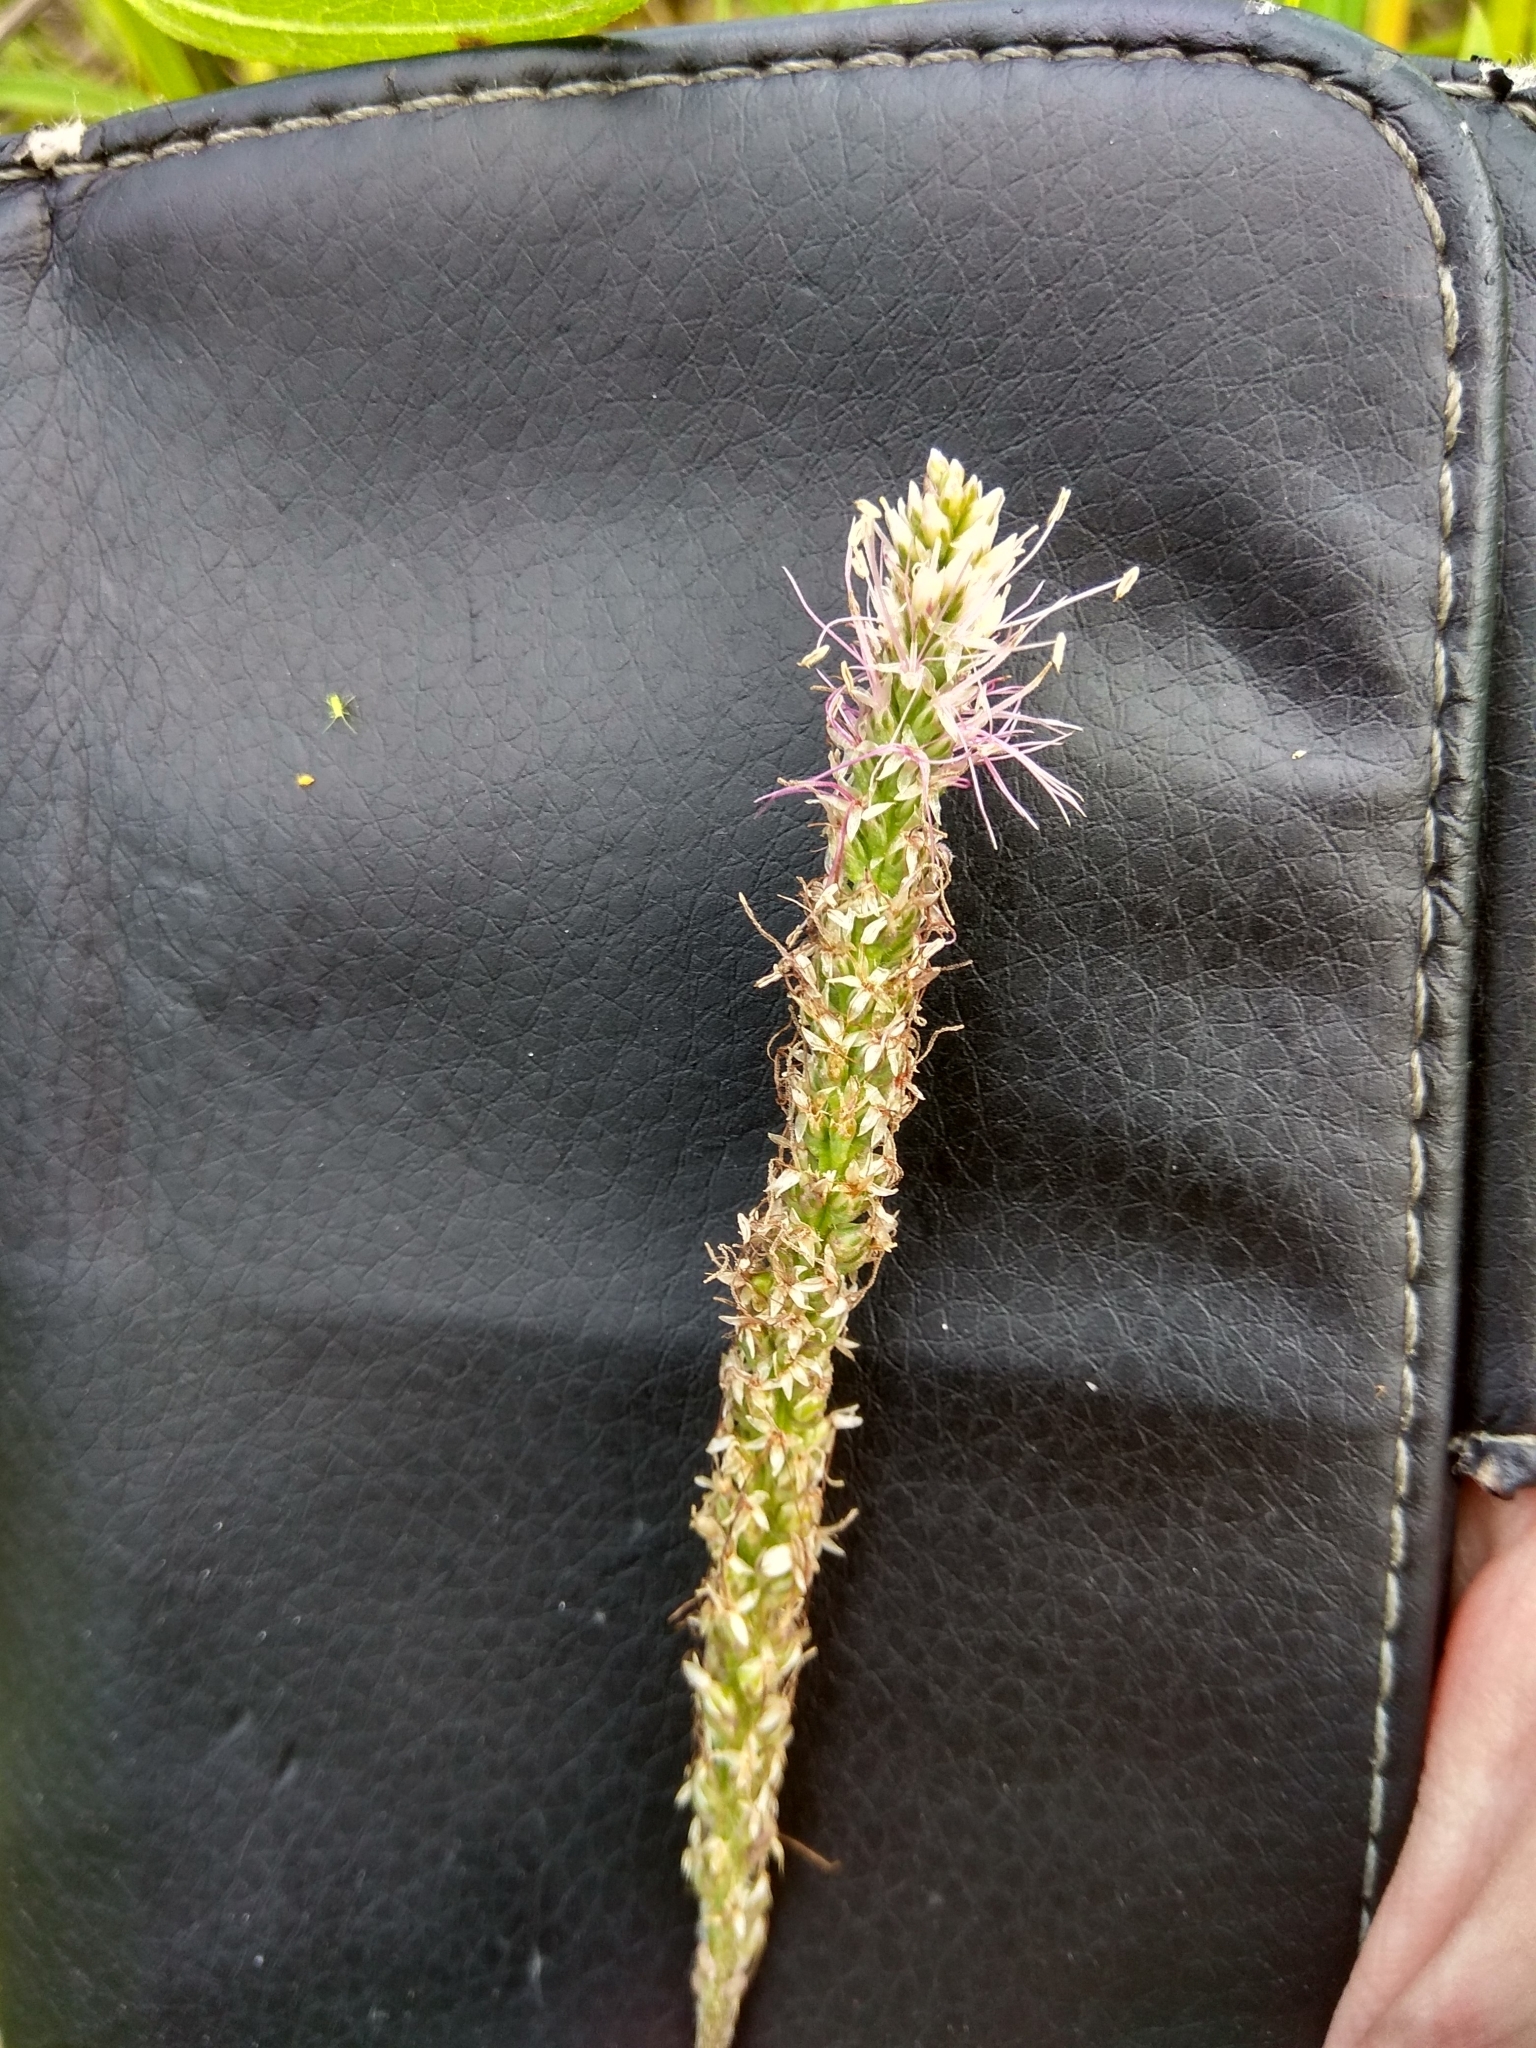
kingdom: Plantae
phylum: Tracheophyta
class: Magnoliopsida
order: Lamiales
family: Plantaginaceae
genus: Plantago
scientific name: Plantago media
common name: Hoary plantain
